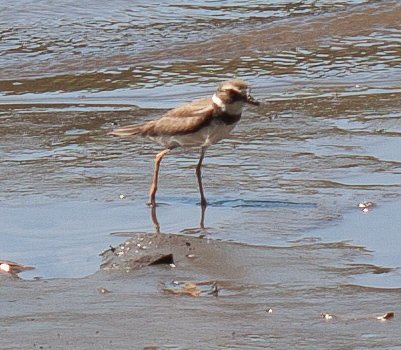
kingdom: Animalia
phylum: Chordata
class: Aves
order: Charadriiformes
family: Charadriidae
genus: Charadrius
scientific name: Charadrius semipalmatus
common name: Semipalmated plover
